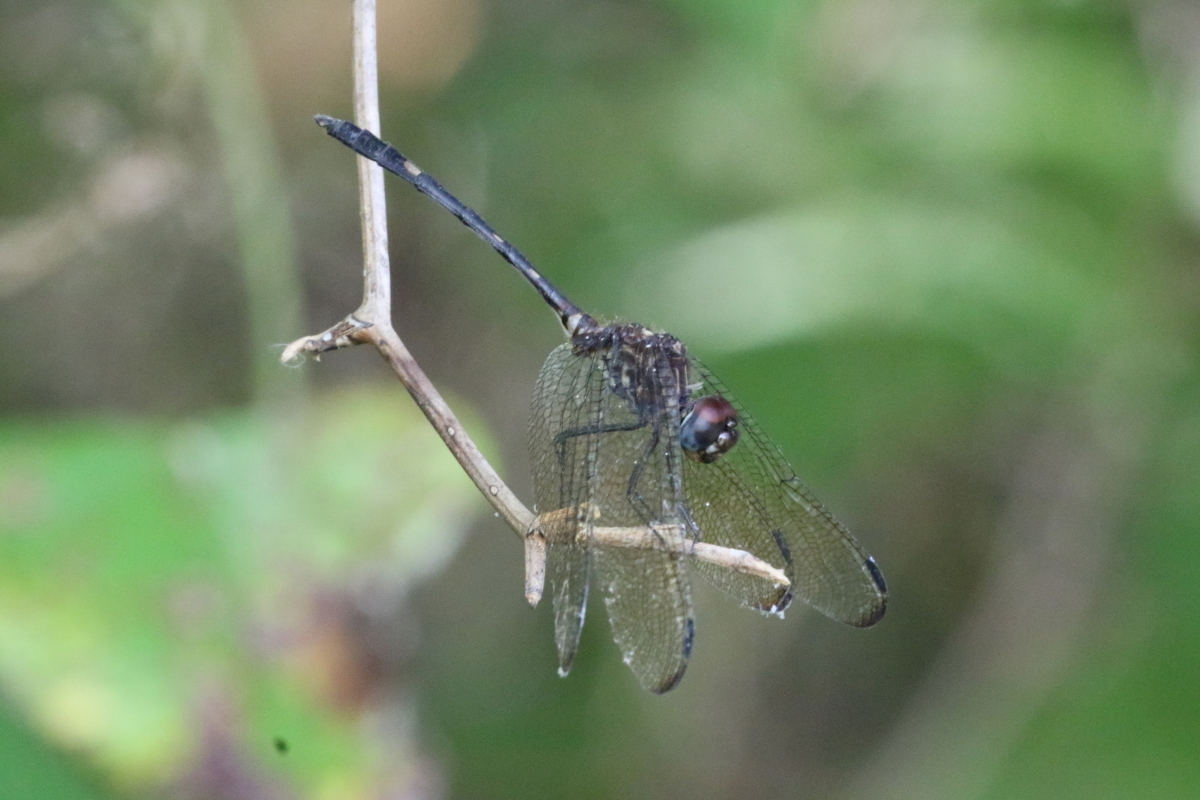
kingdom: Animalia
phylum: Arthropoda
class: Insecta
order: Odonata
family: Libellulidae
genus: Dythemis
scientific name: Dythemis velox
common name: Swift setwing
